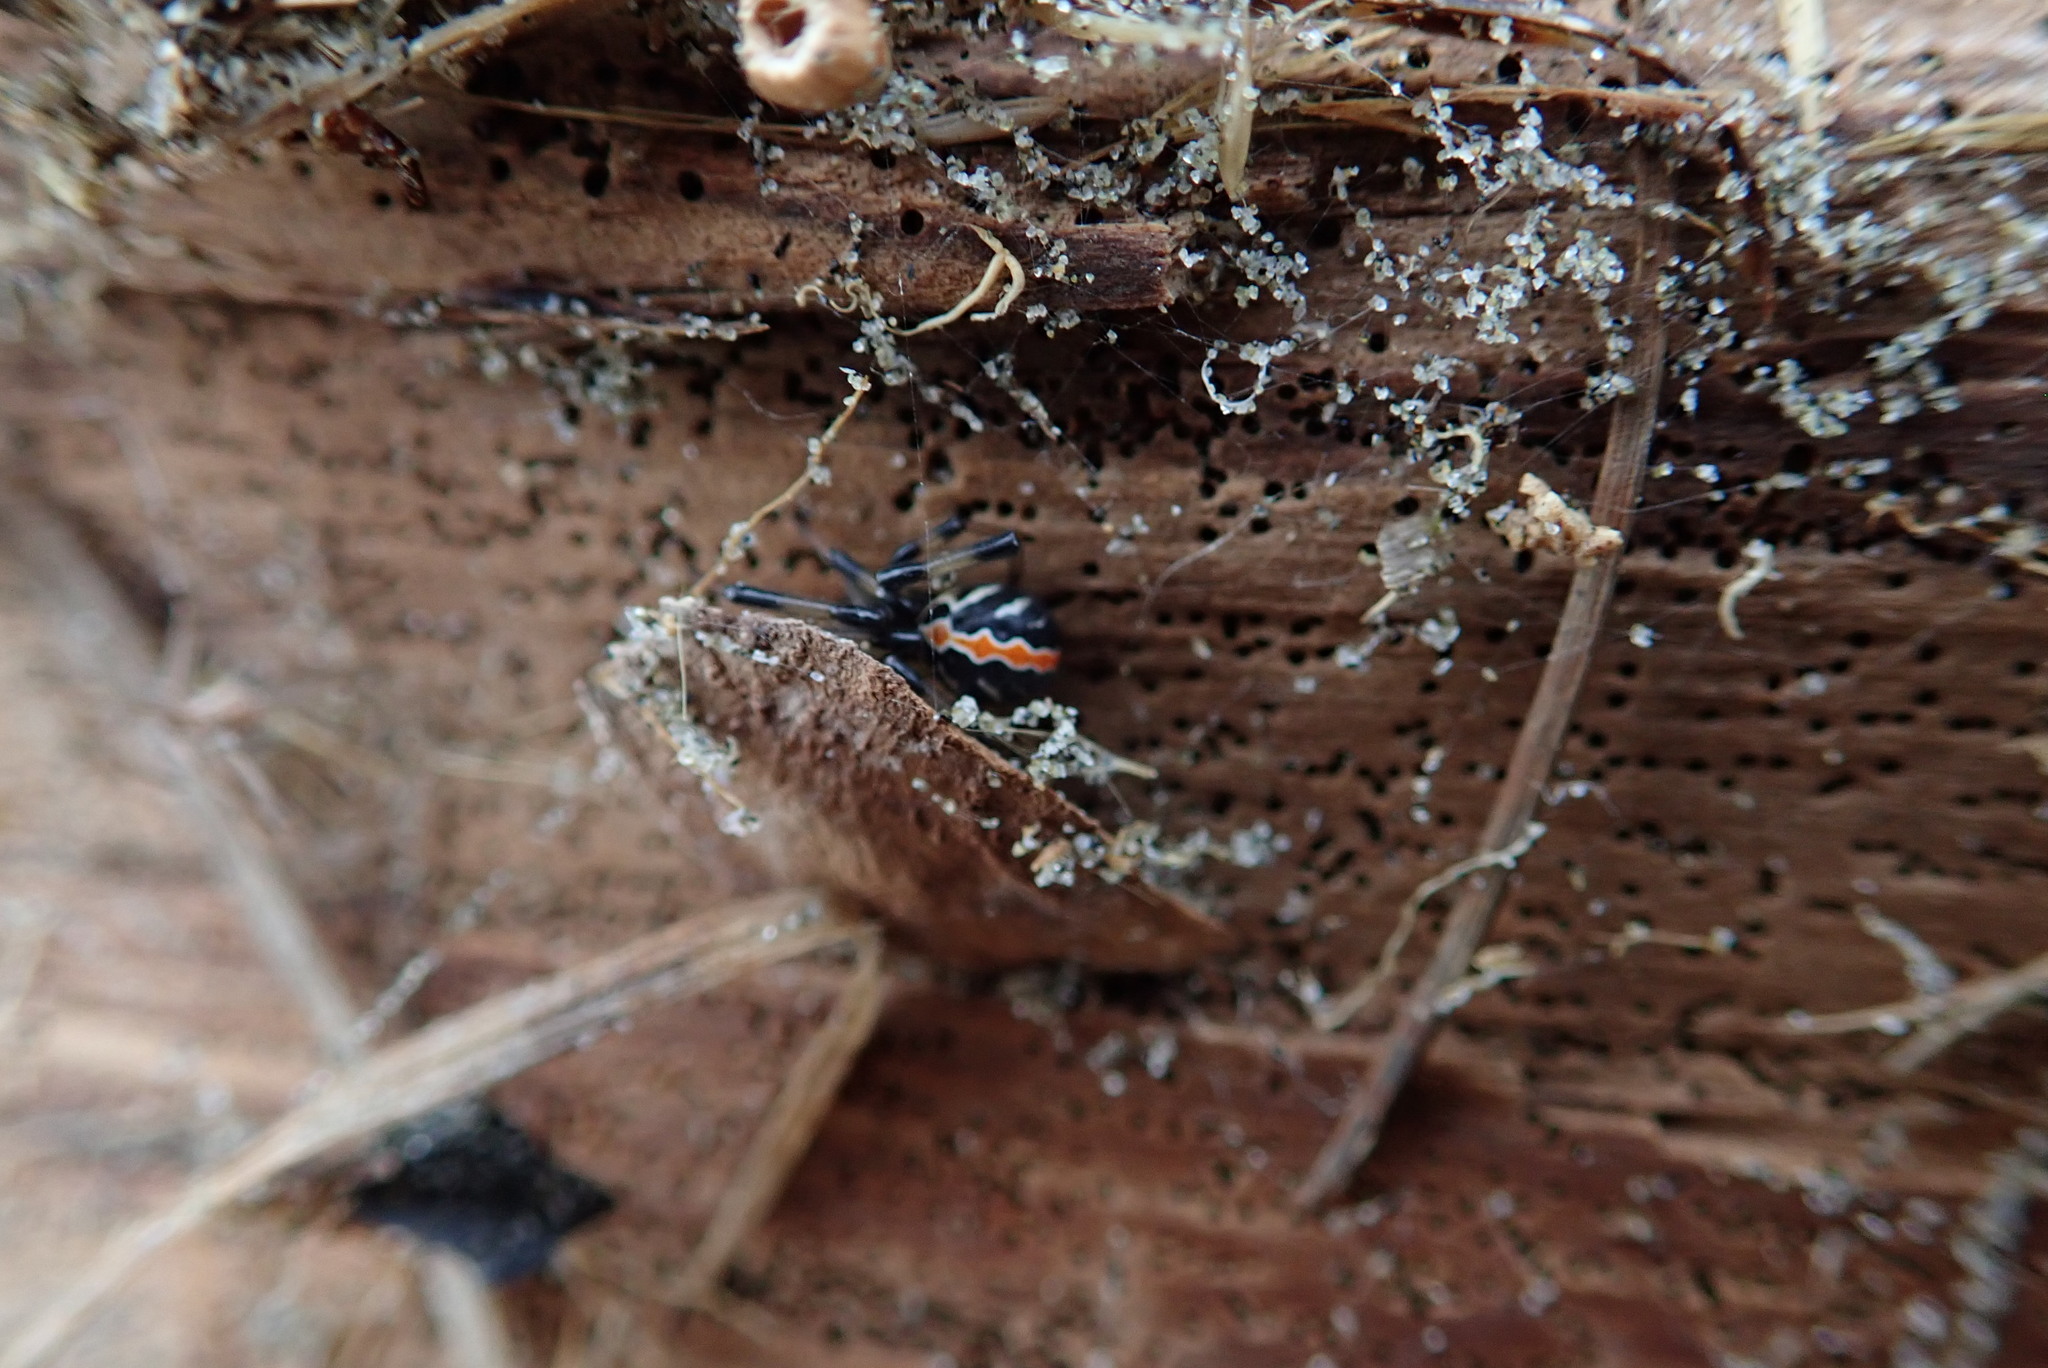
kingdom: Animalia
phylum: Arthropoda
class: Arachnida
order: Araneae
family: Theridiidae
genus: Latrodectus
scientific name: Latrodectus katipo
